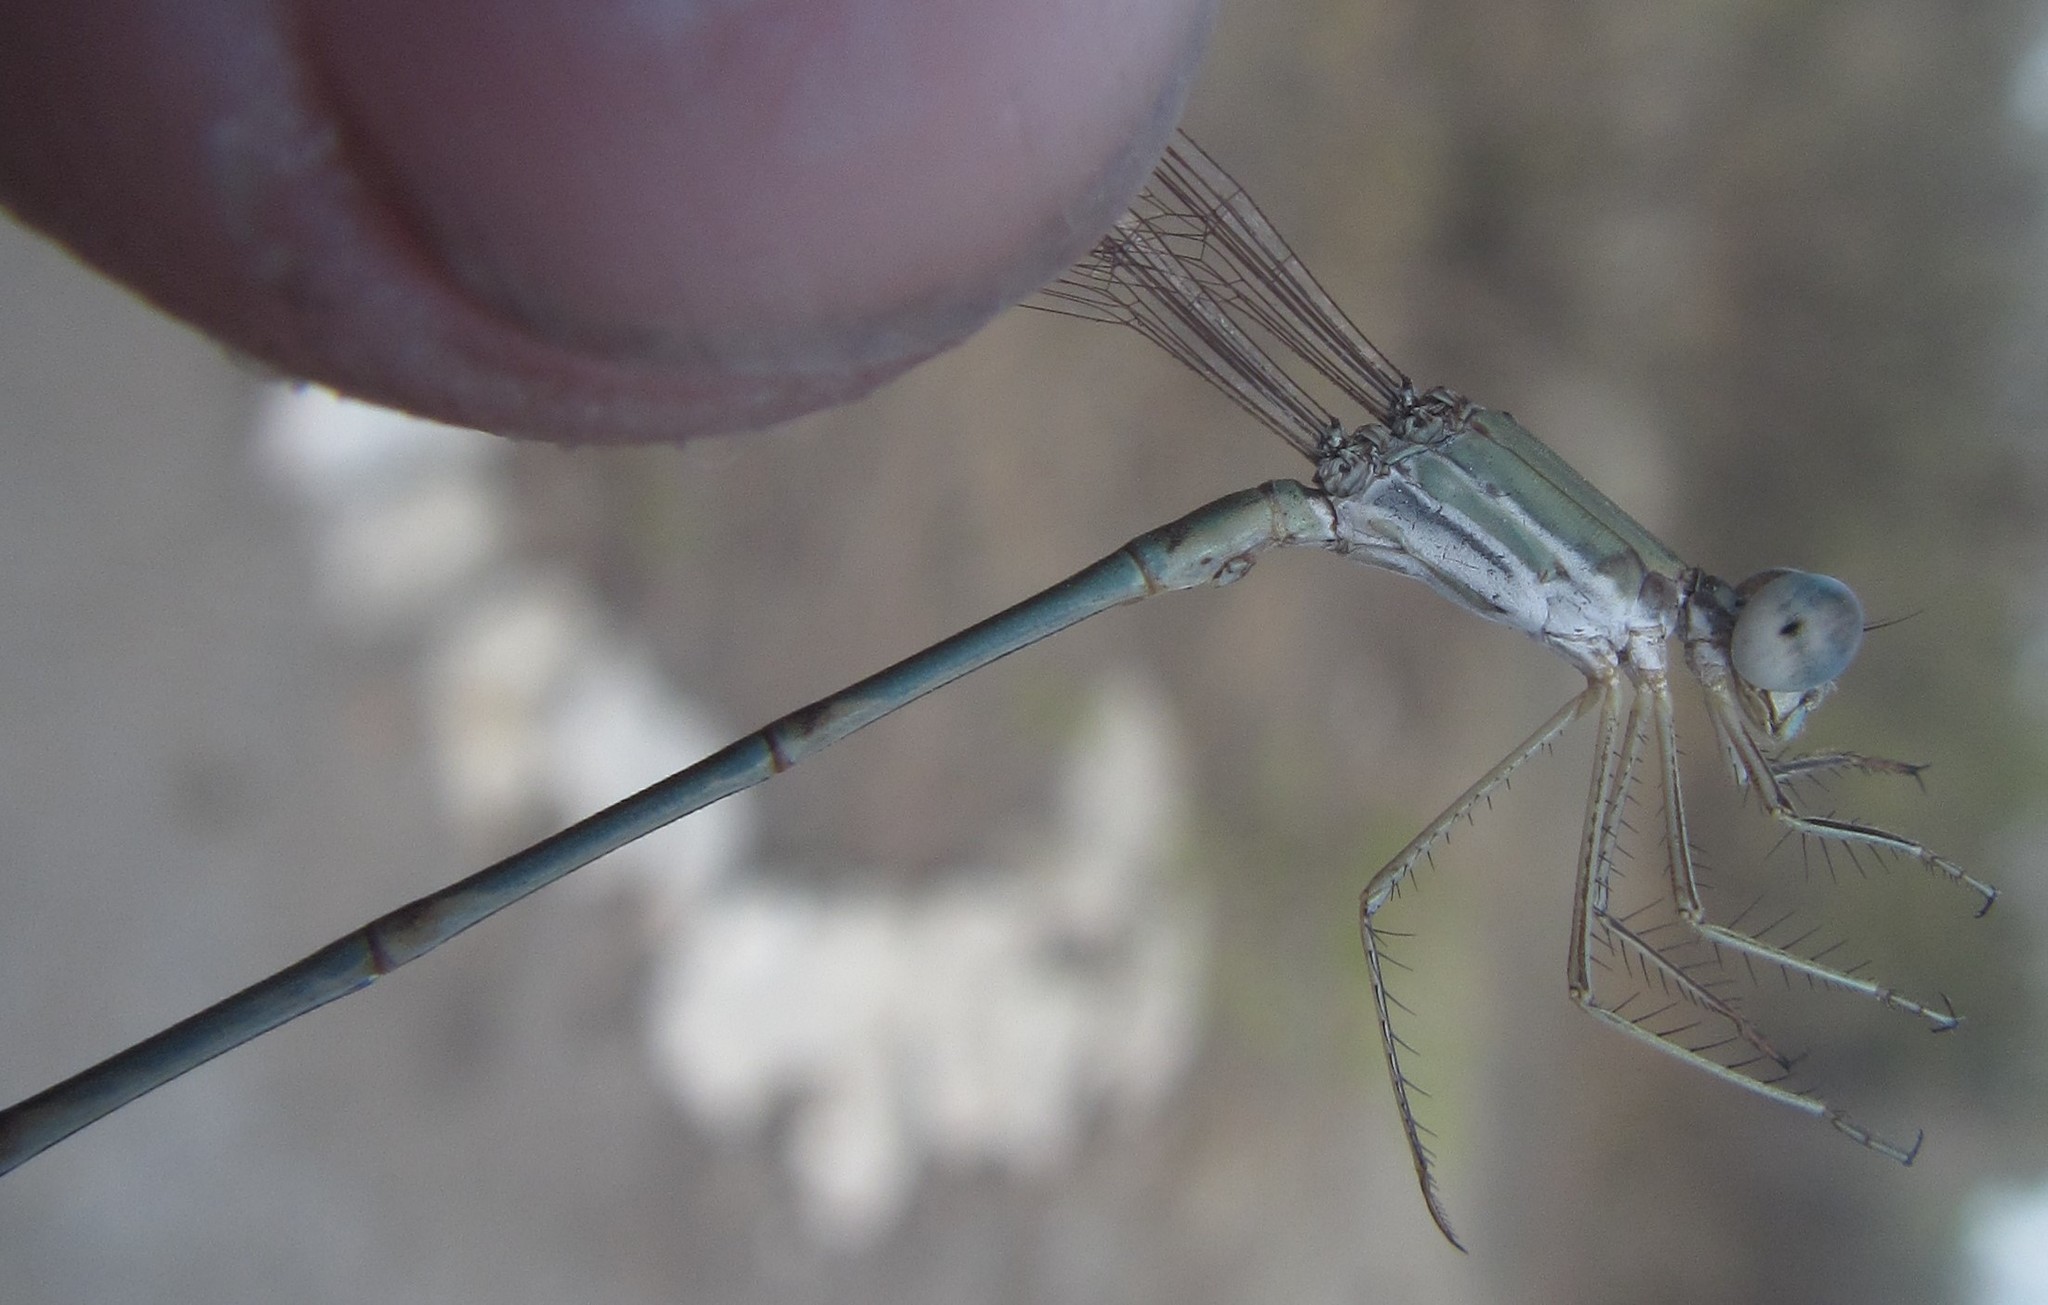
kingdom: Animalia
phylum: Arthropoda
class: Insecta
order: Odonata
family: Lestidae
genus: Lestes
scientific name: Lestes pallidus
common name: Pallid spreadwing
